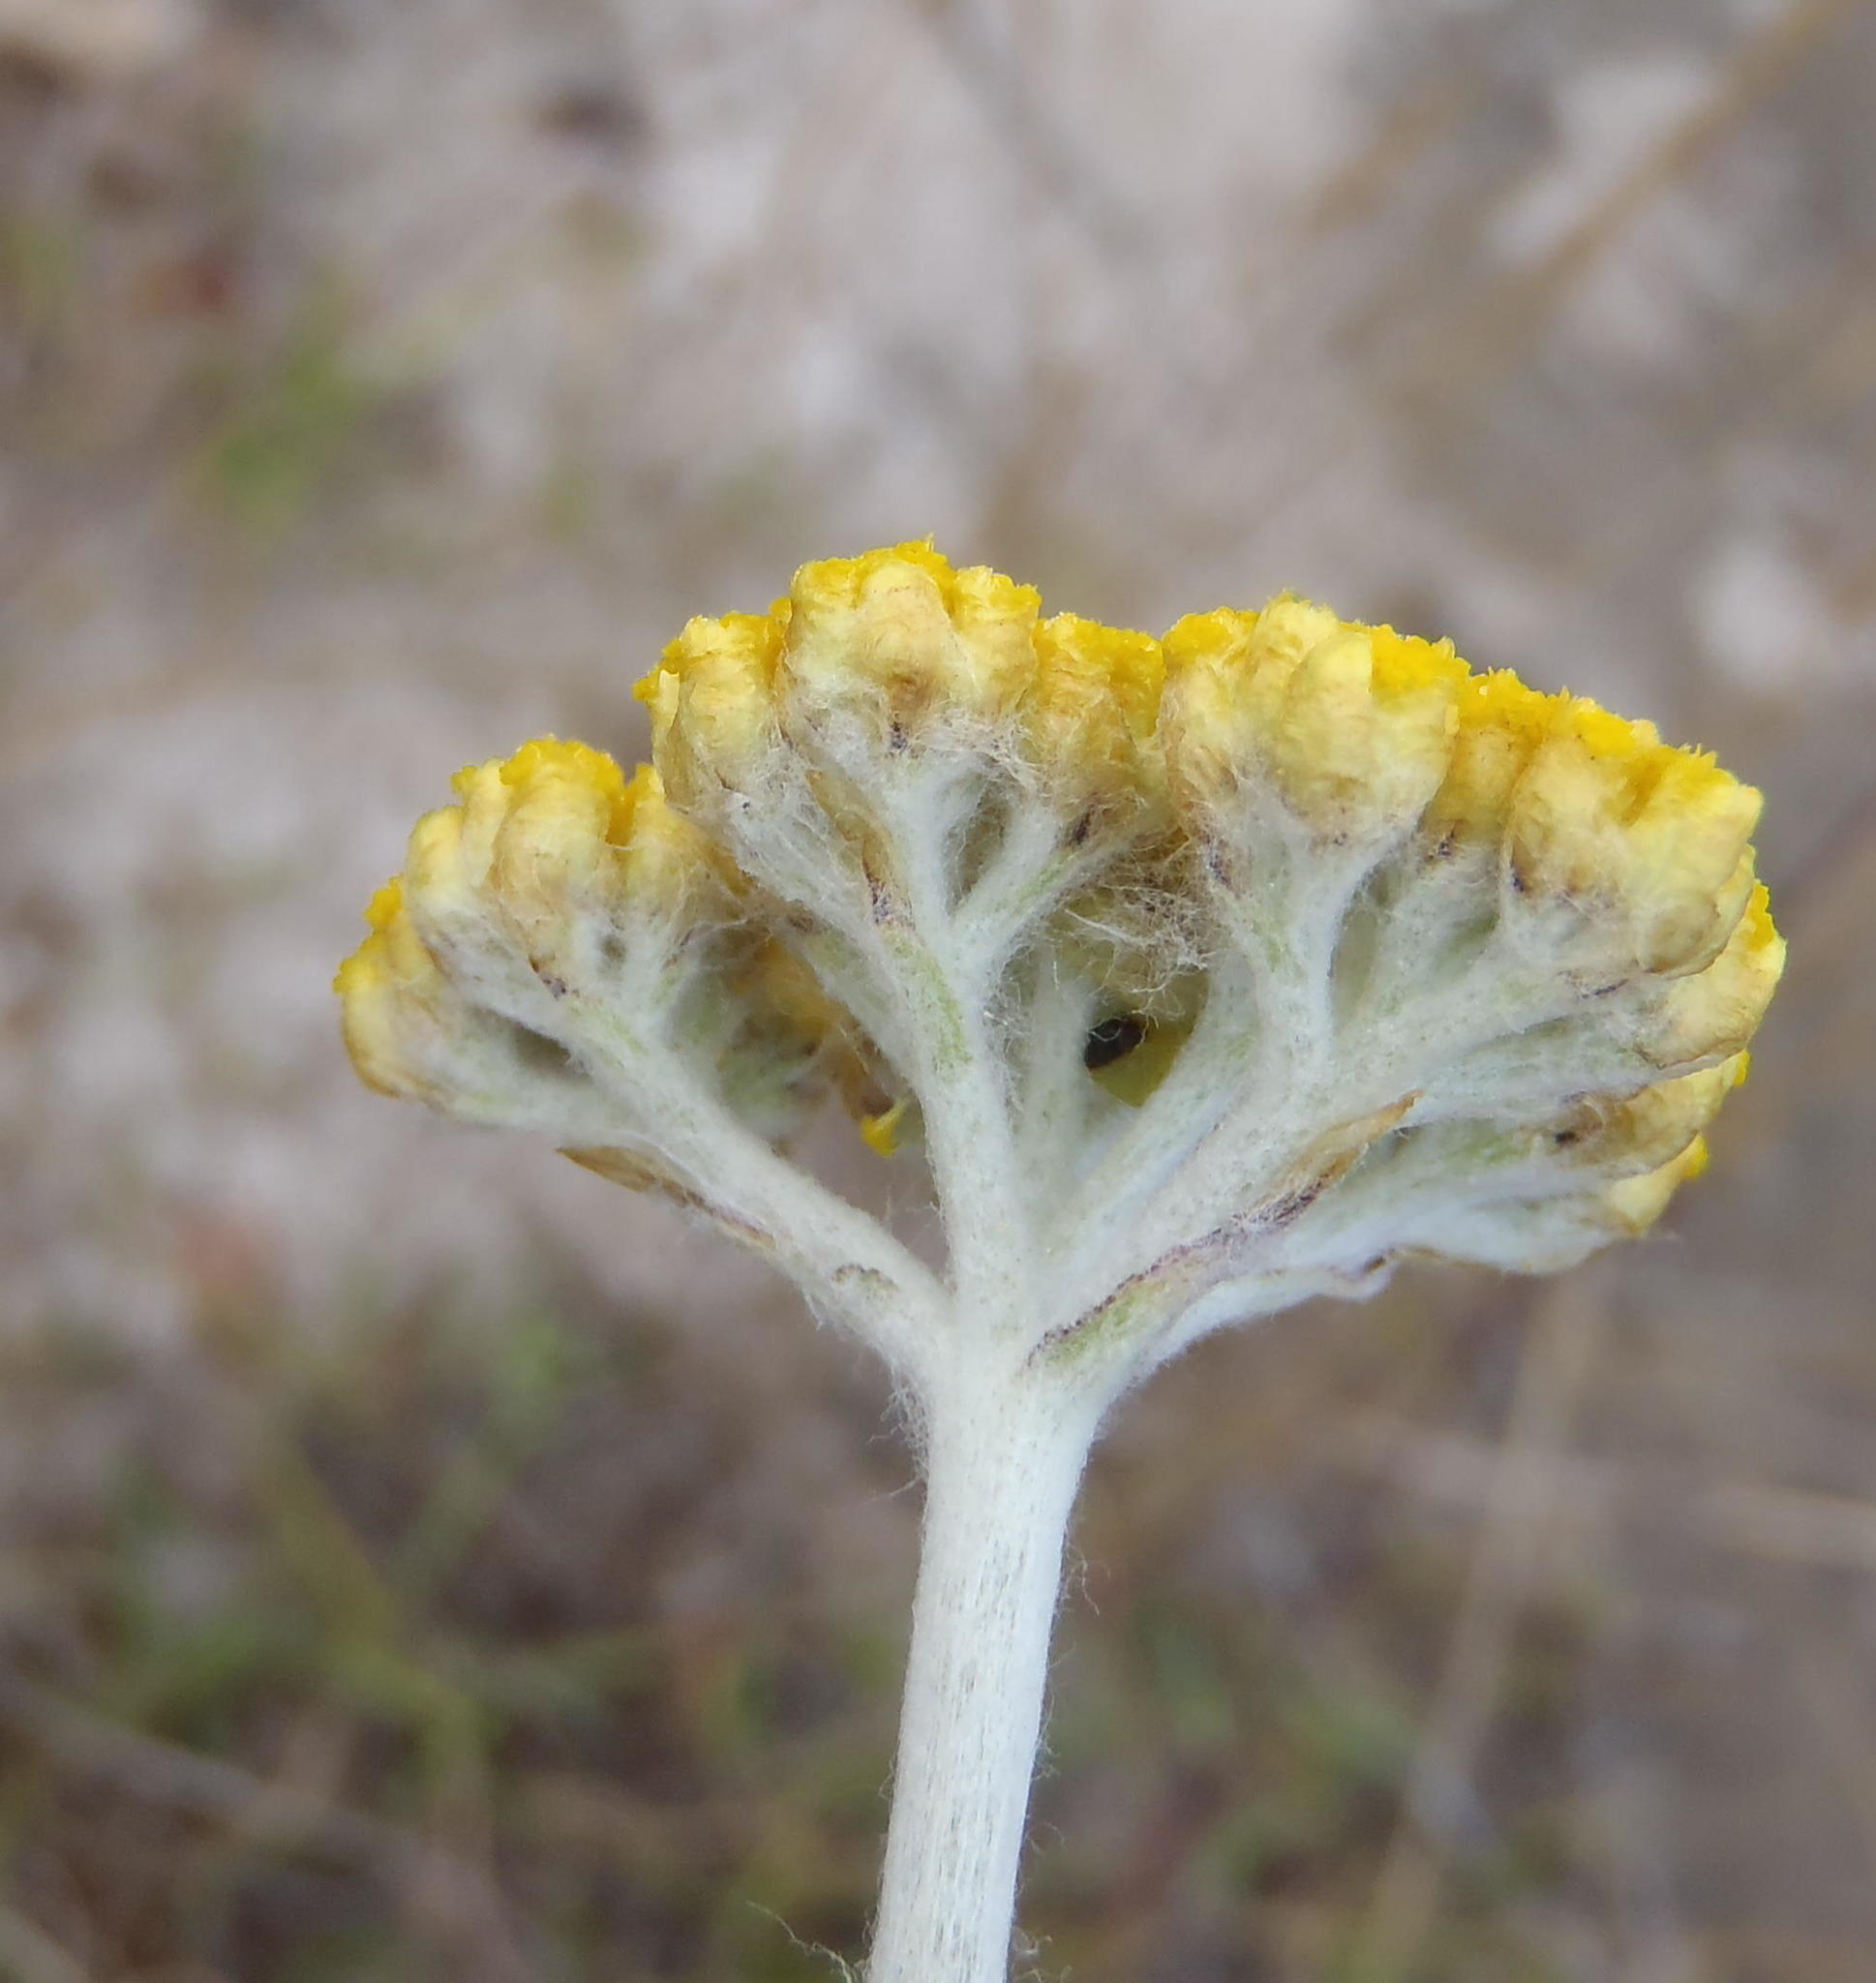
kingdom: Plantae
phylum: Tracheophyta
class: Magnoliopsida
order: Asterales
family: Asteraceae
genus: Helichrysum
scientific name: Helichrysum odoratissimum
